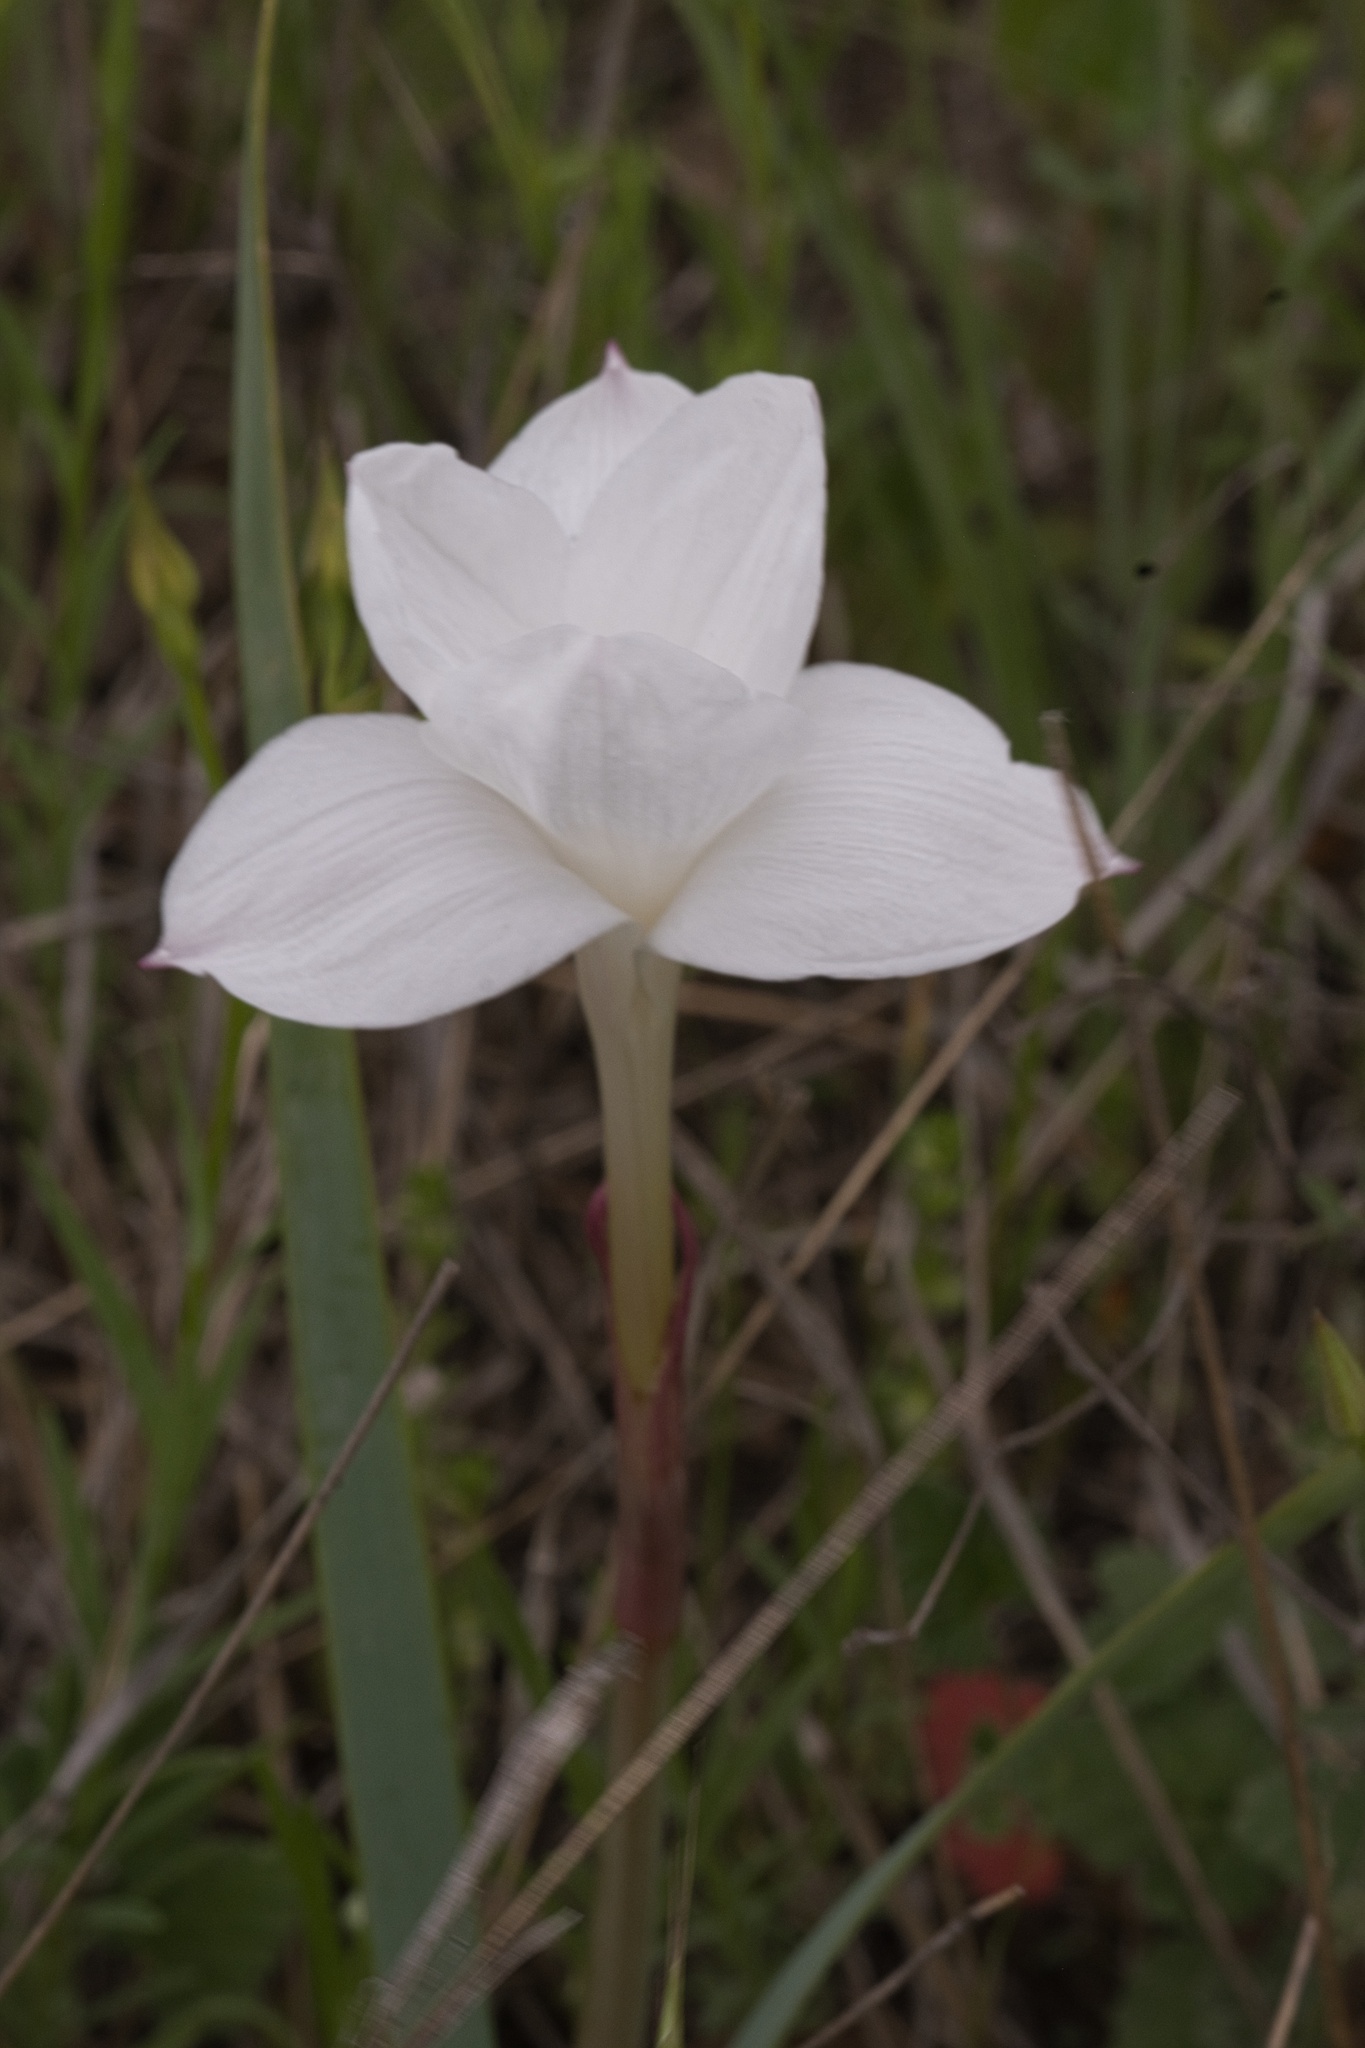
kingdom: Plantae
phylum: Tracheophyta
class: Liliopsida
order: Asparagales
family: Amaryllidaceae
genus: Zephyranthes
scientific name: Zephyranthes drummondii
